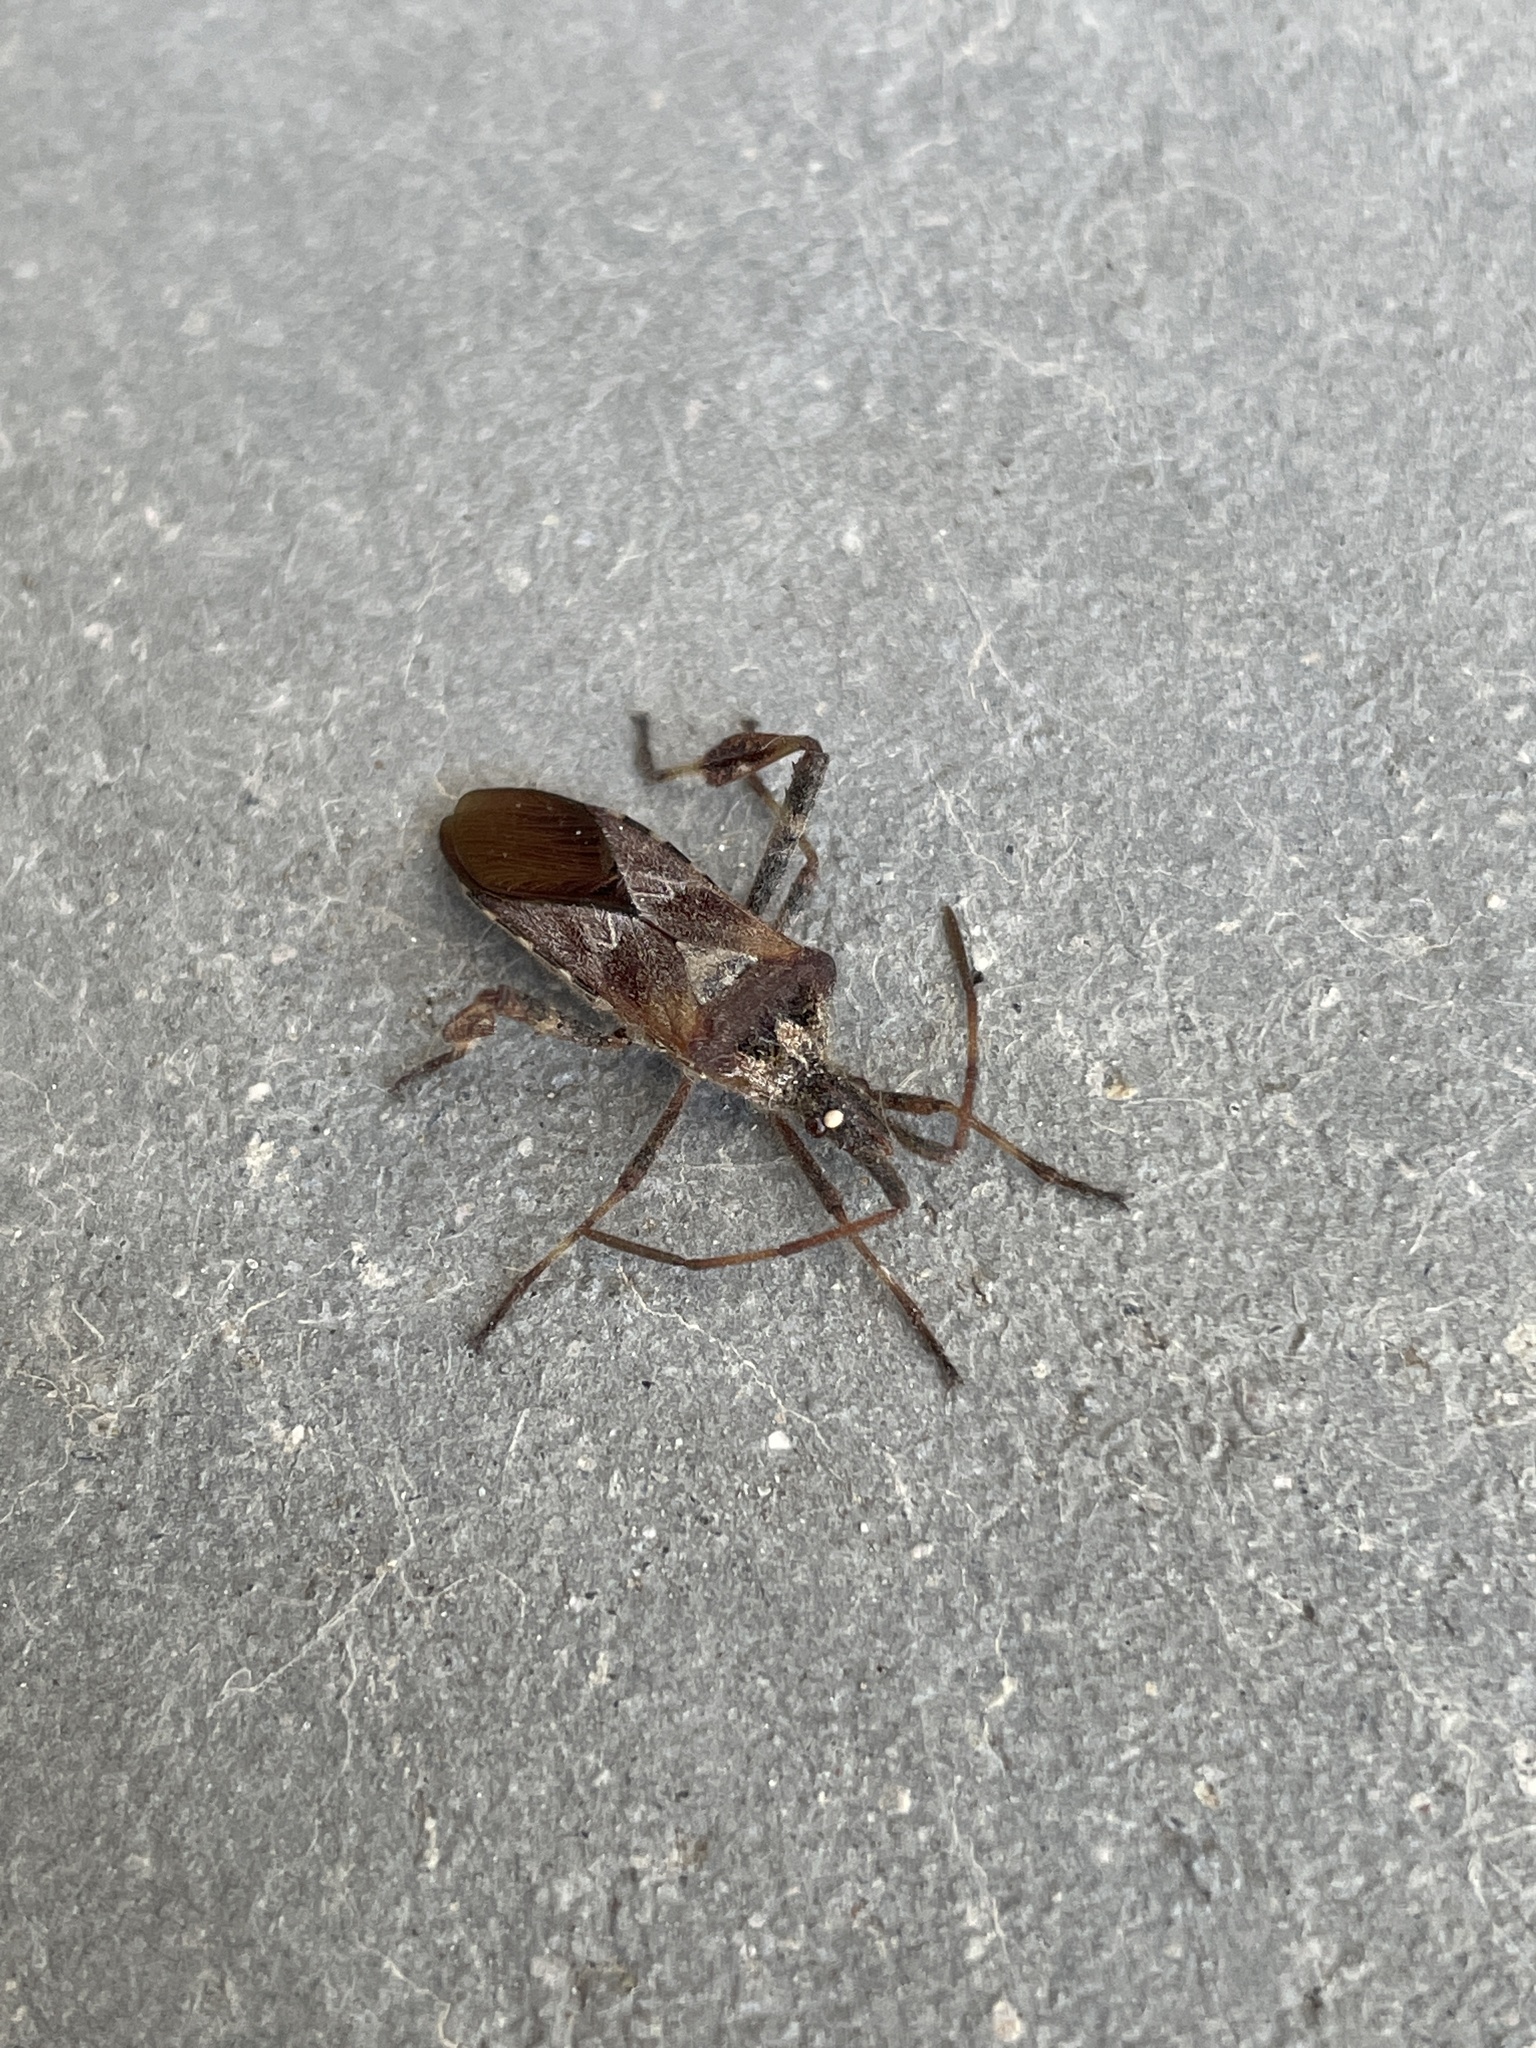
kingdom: Animalia
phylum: Arthropoda
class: Insecta
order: Hemiptera
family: Coreidae
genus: Leptoglossus
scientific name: Leptoglossus occidentalis
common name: Western conifer-seed bug
